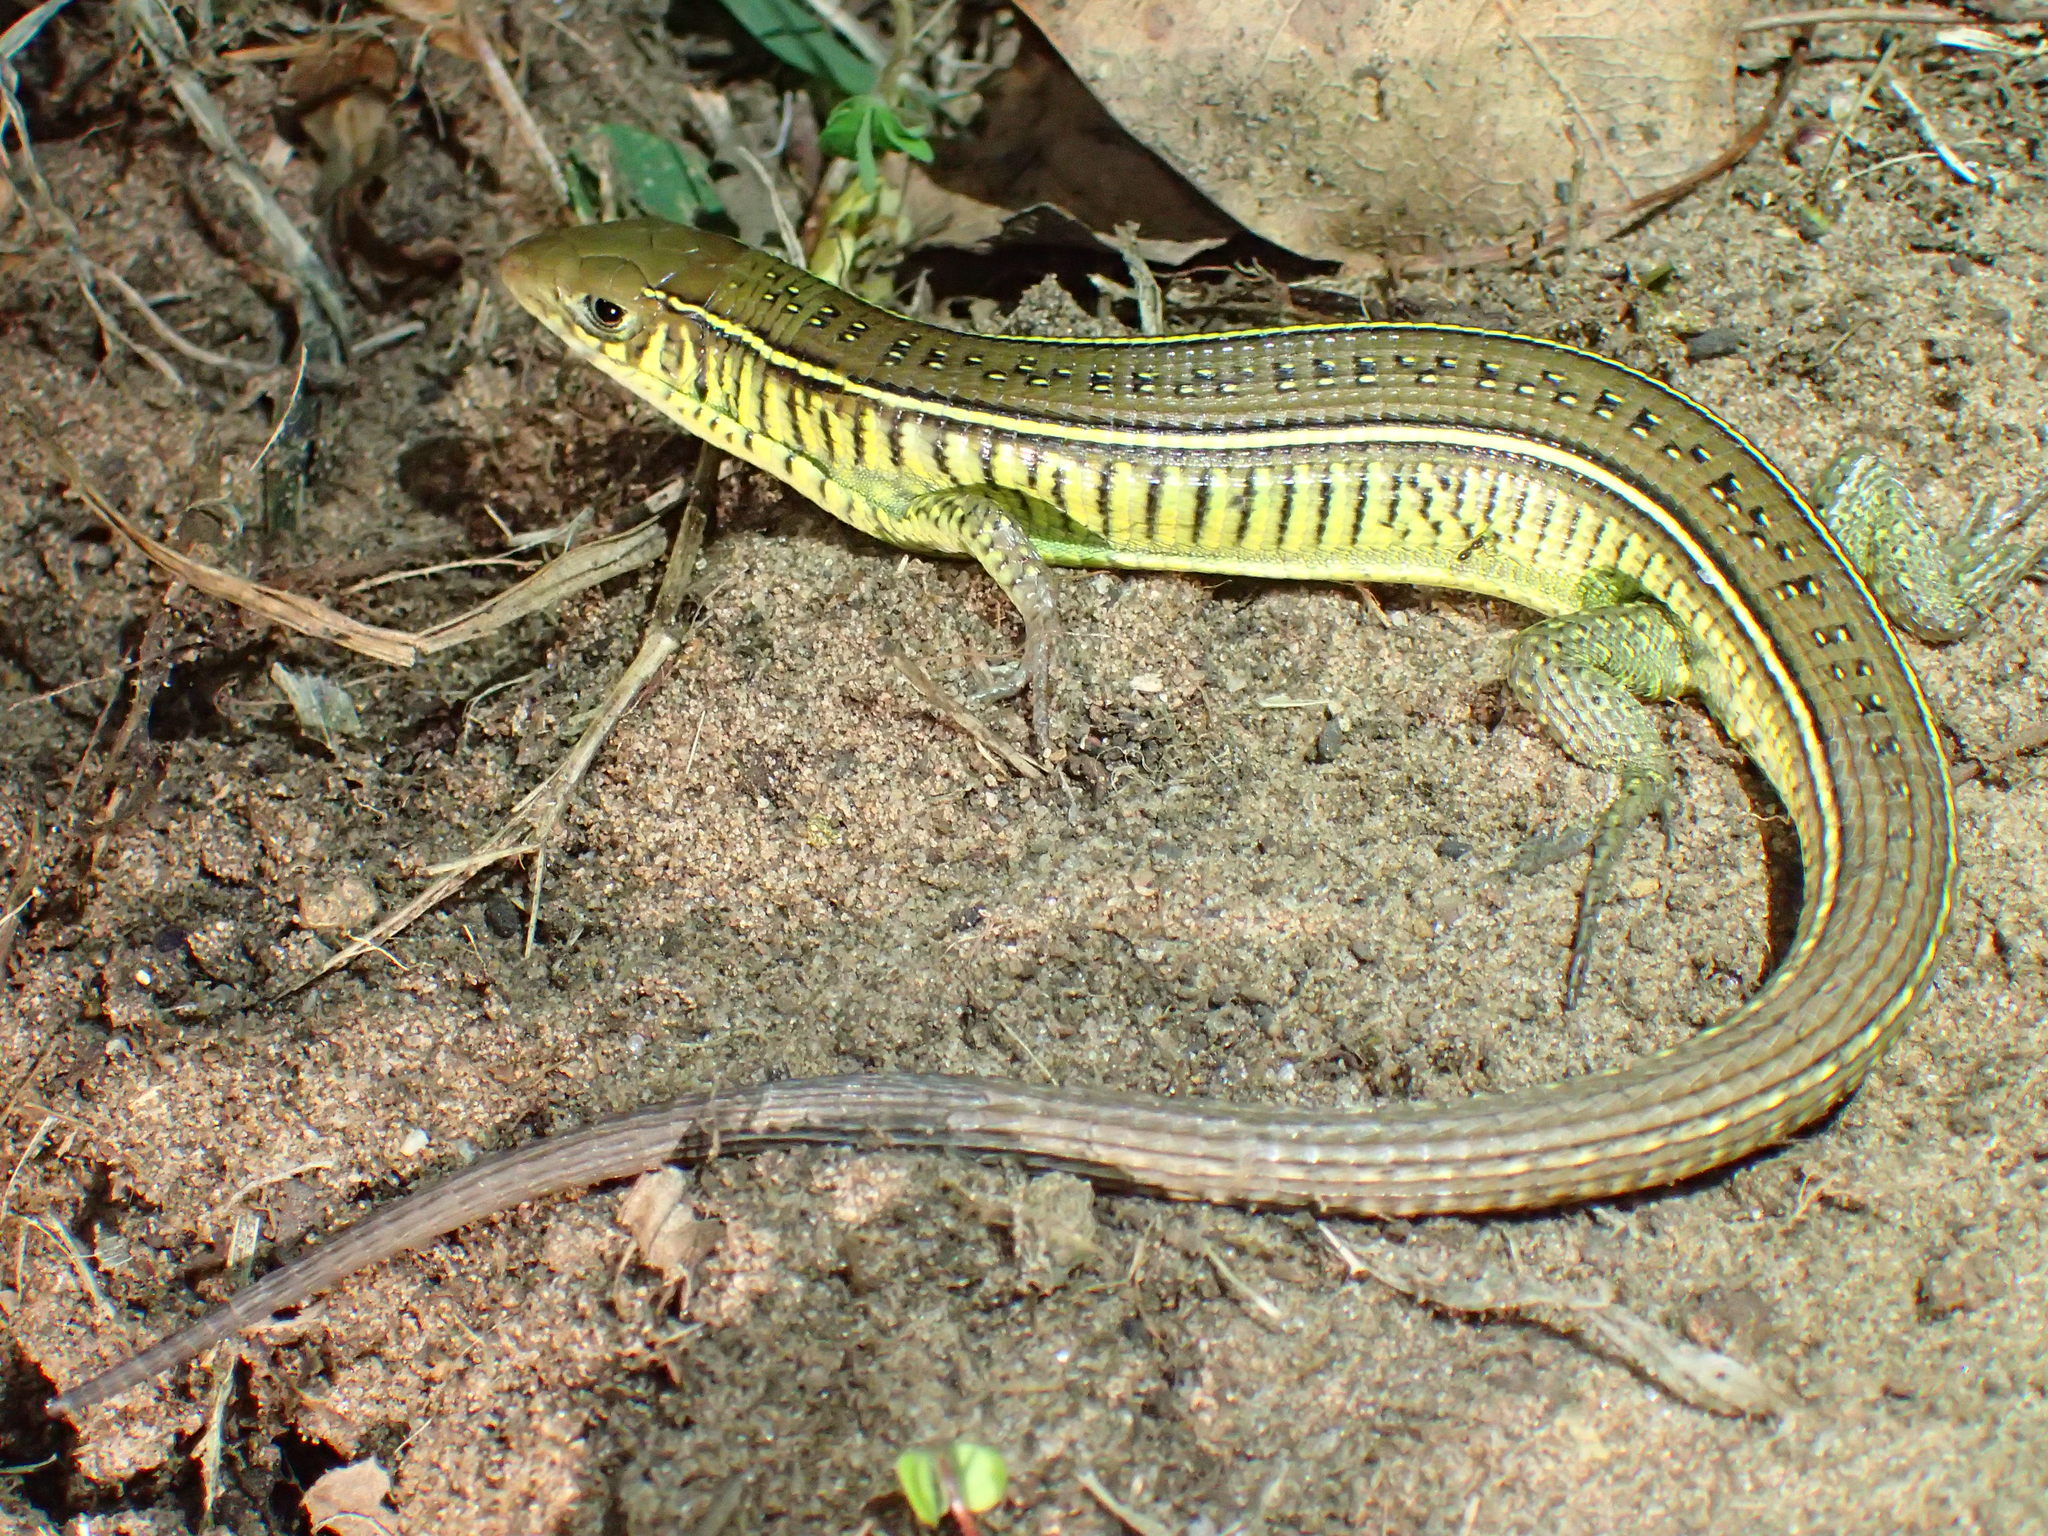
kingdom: Animalia
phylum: Chordata
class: Squamata
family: Gerrhosauridae
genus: Gerrhosaurus
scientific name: Gerrhosaurus flavigularis
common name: Yellow-throated plated lizard
